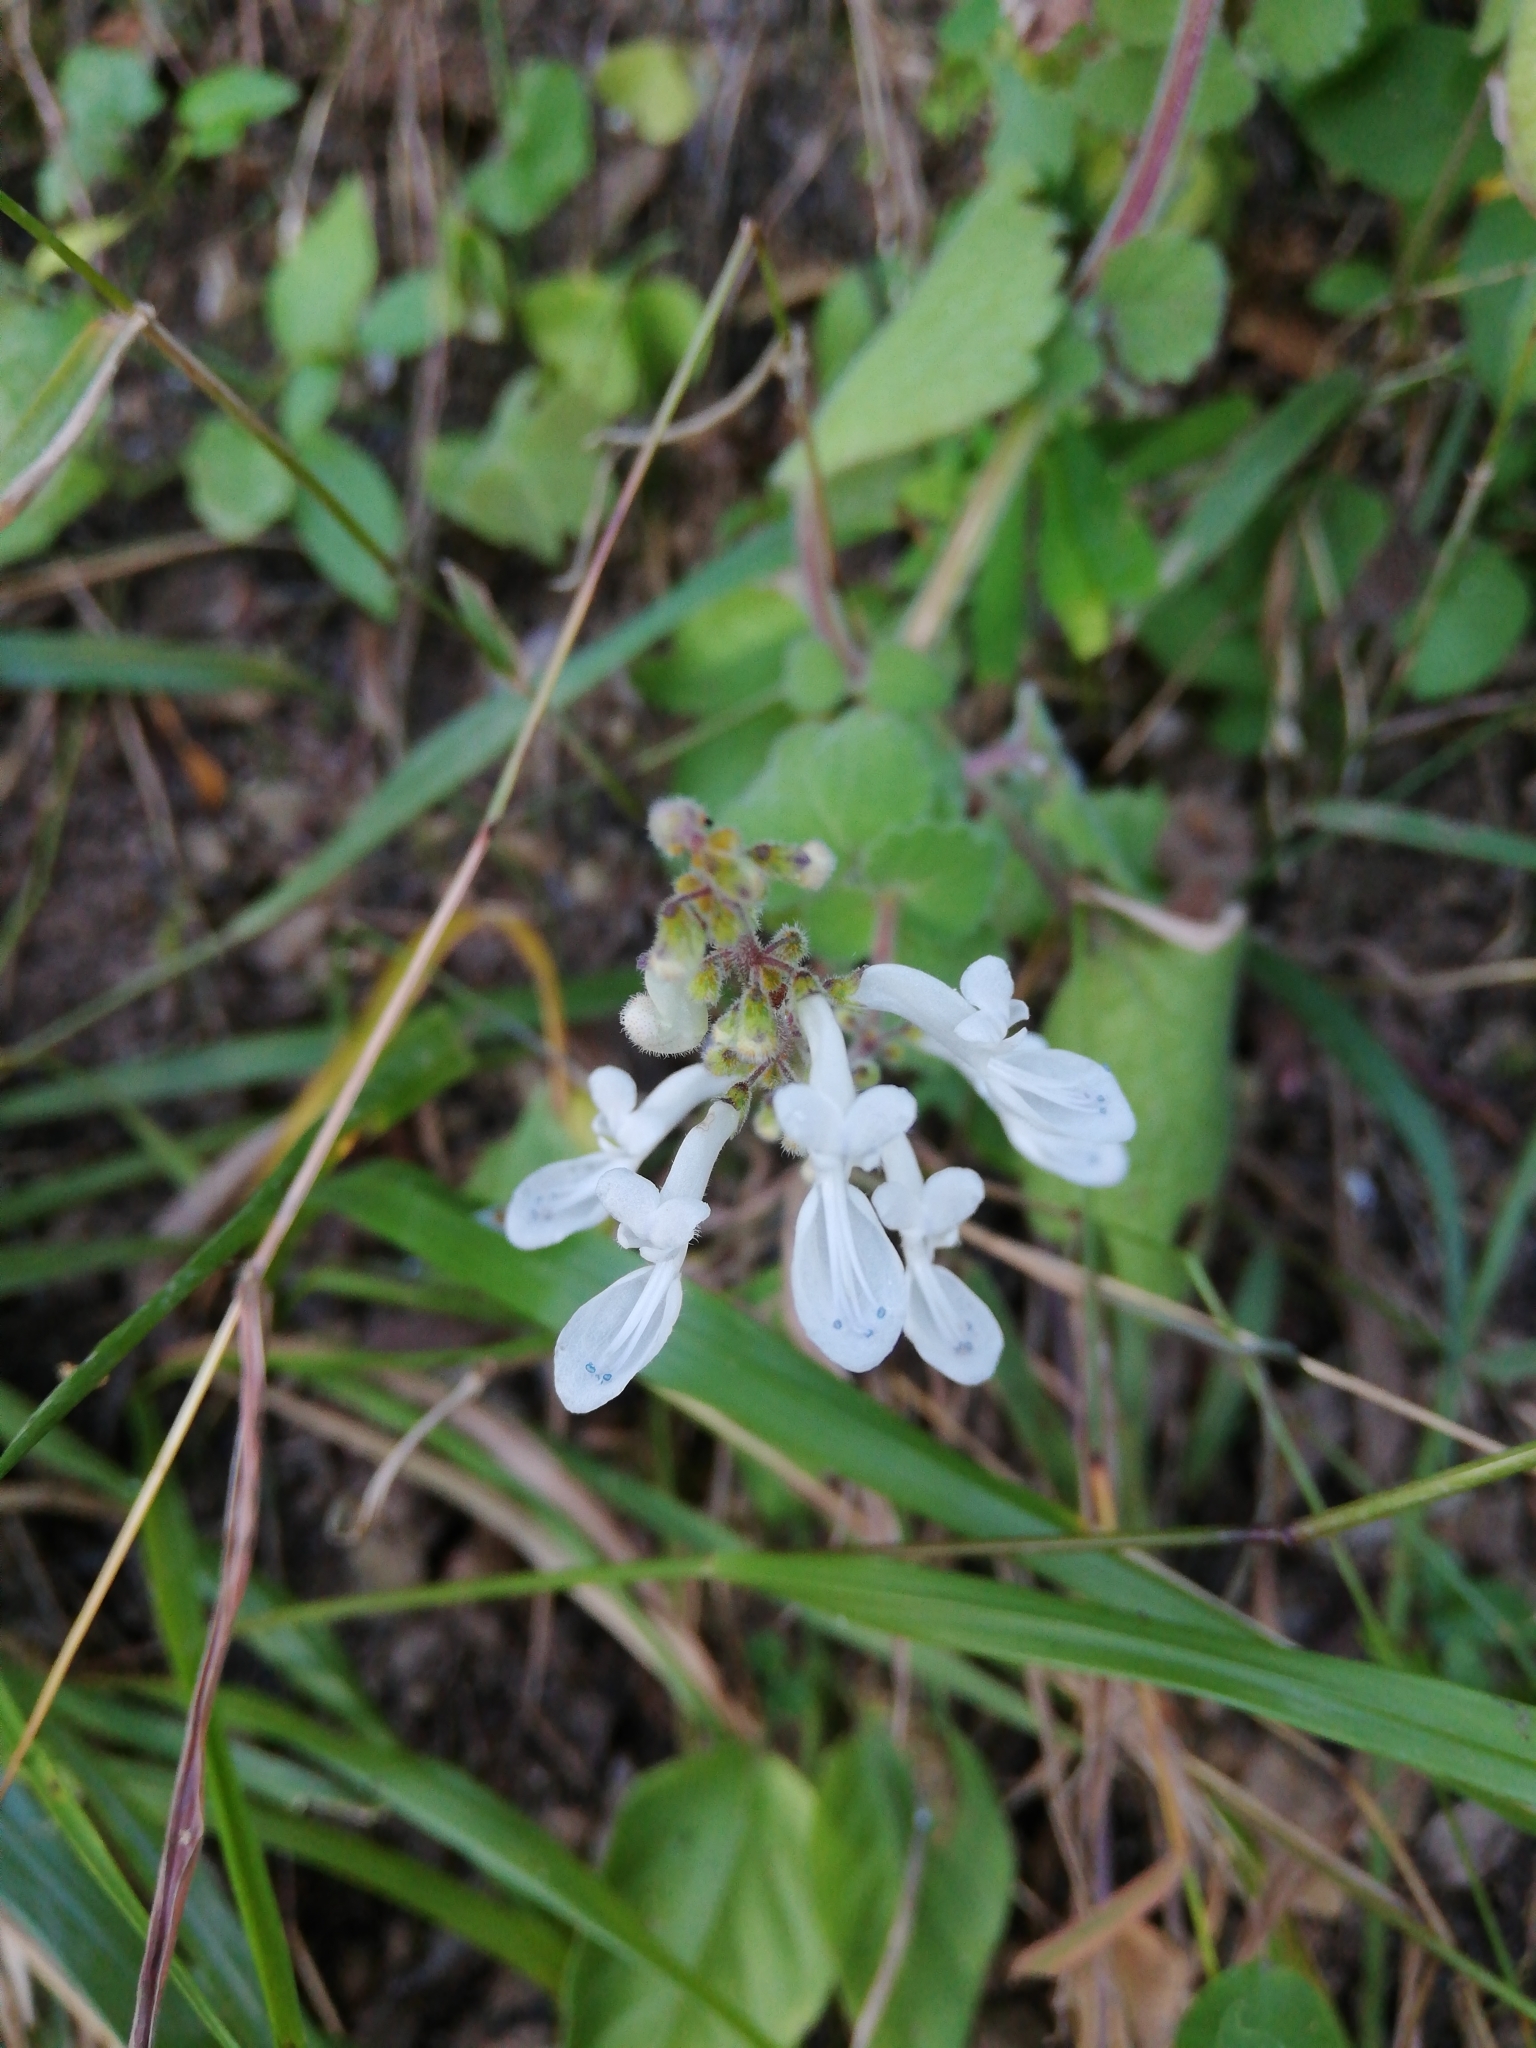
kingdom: Plantae
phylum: Tracheophyta
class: Magnoliopsida
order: Lamiales
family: Lamiaceae
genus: Coleus
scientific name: Coleus madagascariensis
